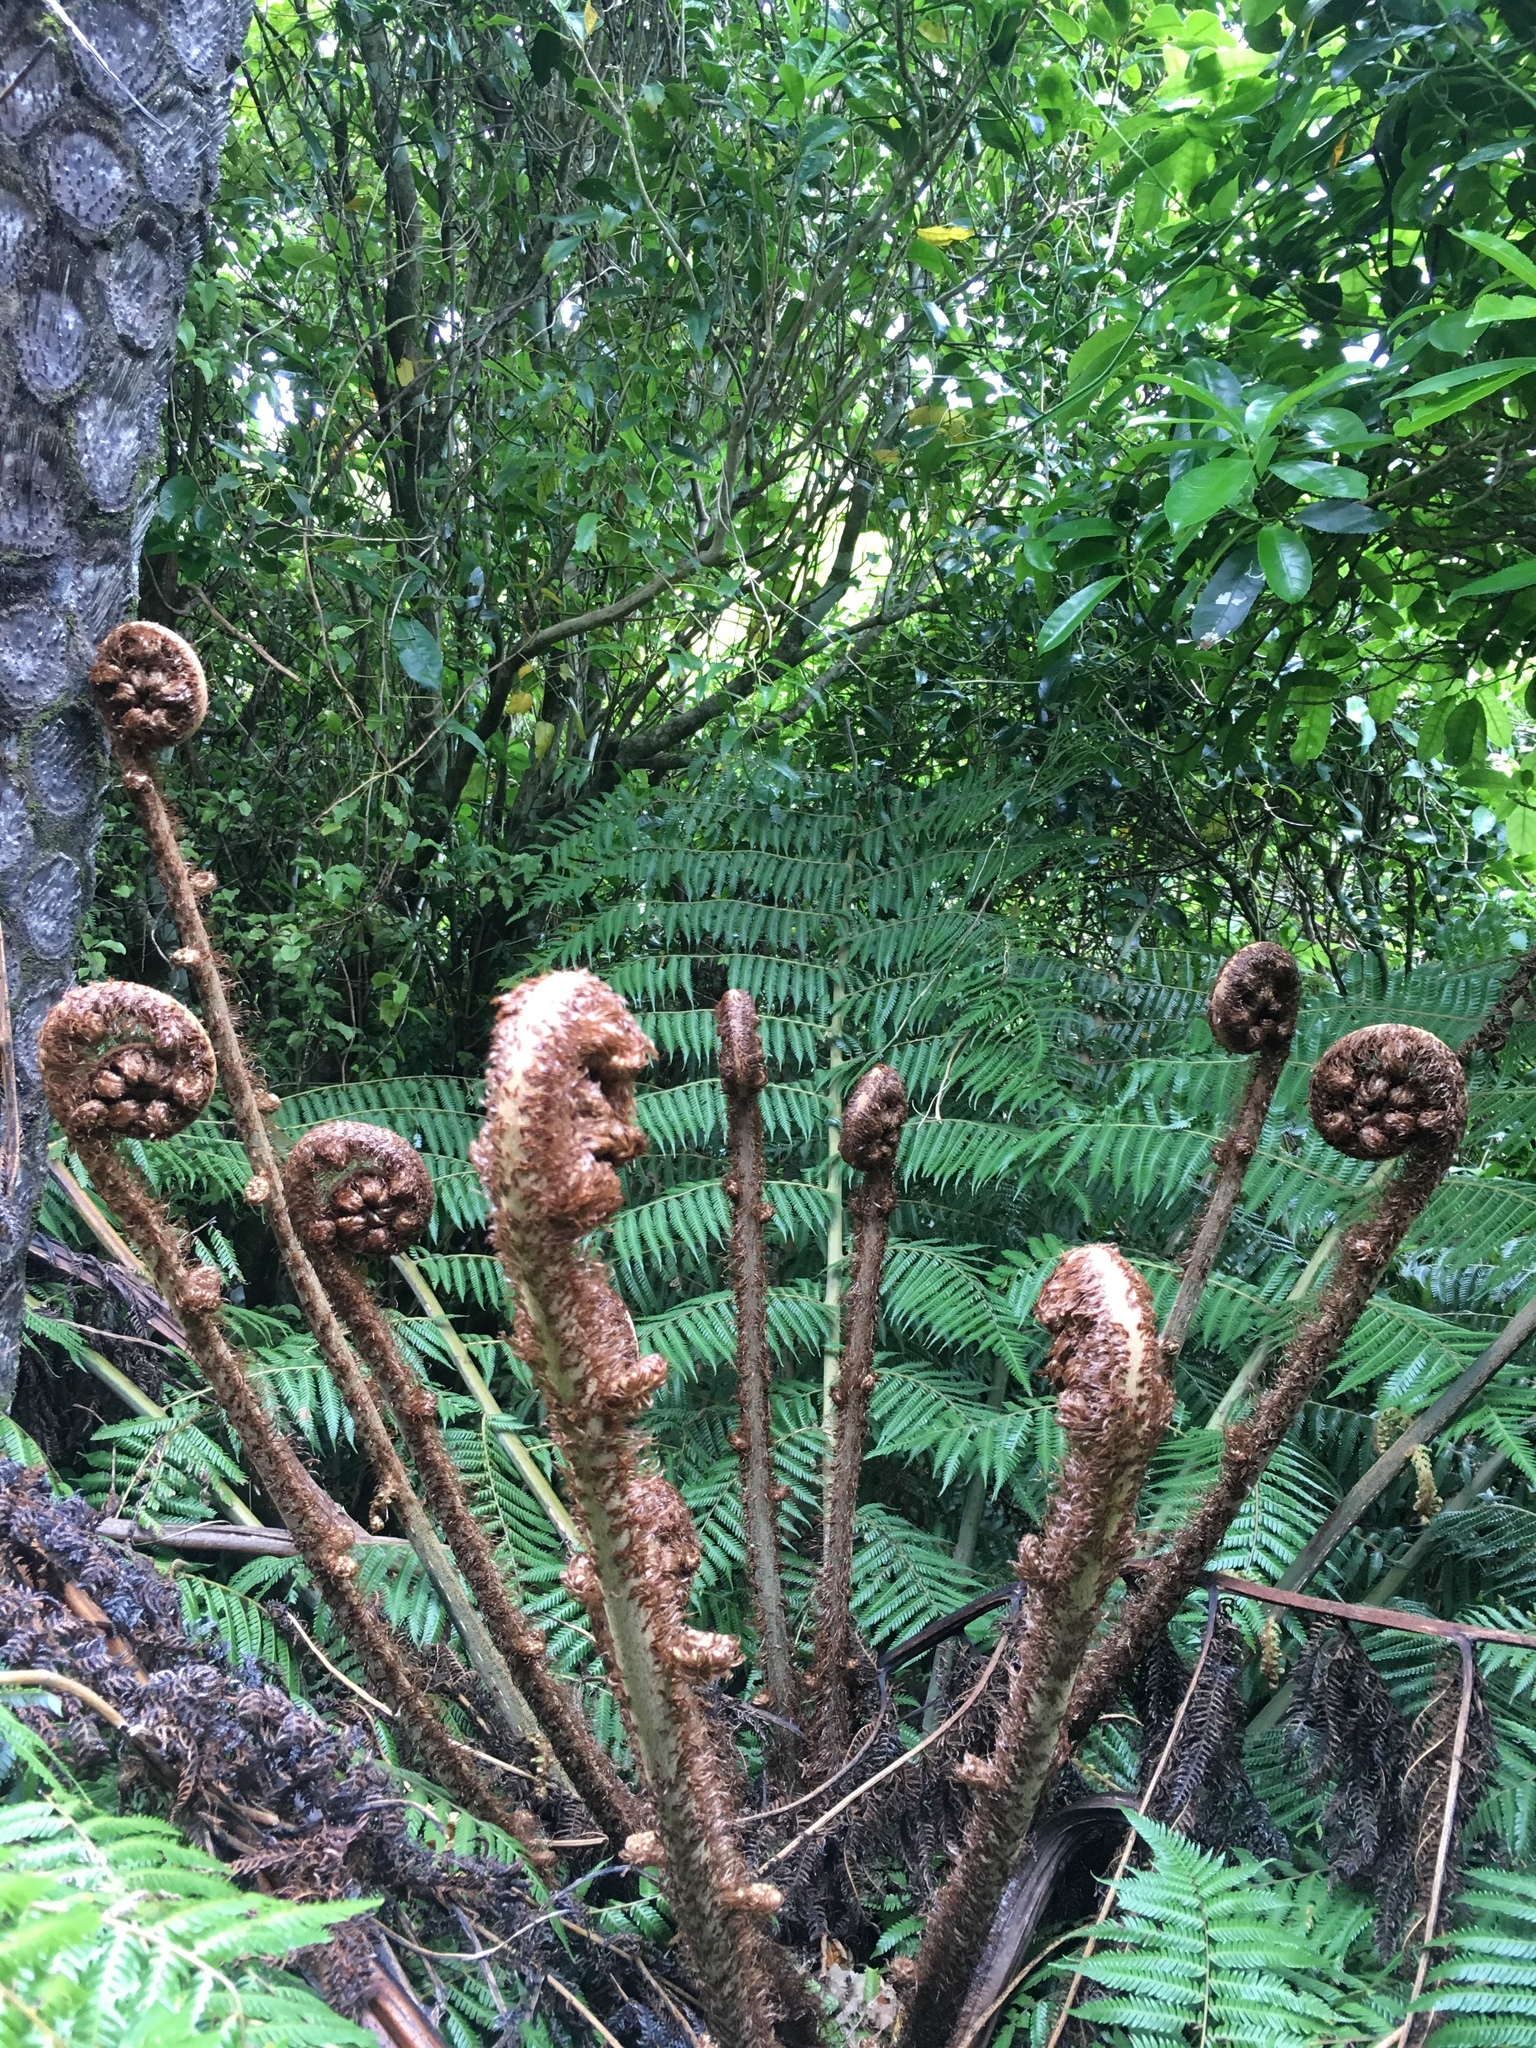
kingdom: Plantae
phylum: Tracheophyta
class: Polypodiopsida
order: Cyatheales
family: Cyatheaceae
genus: Alsophila
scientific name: Alsophila dealbata
